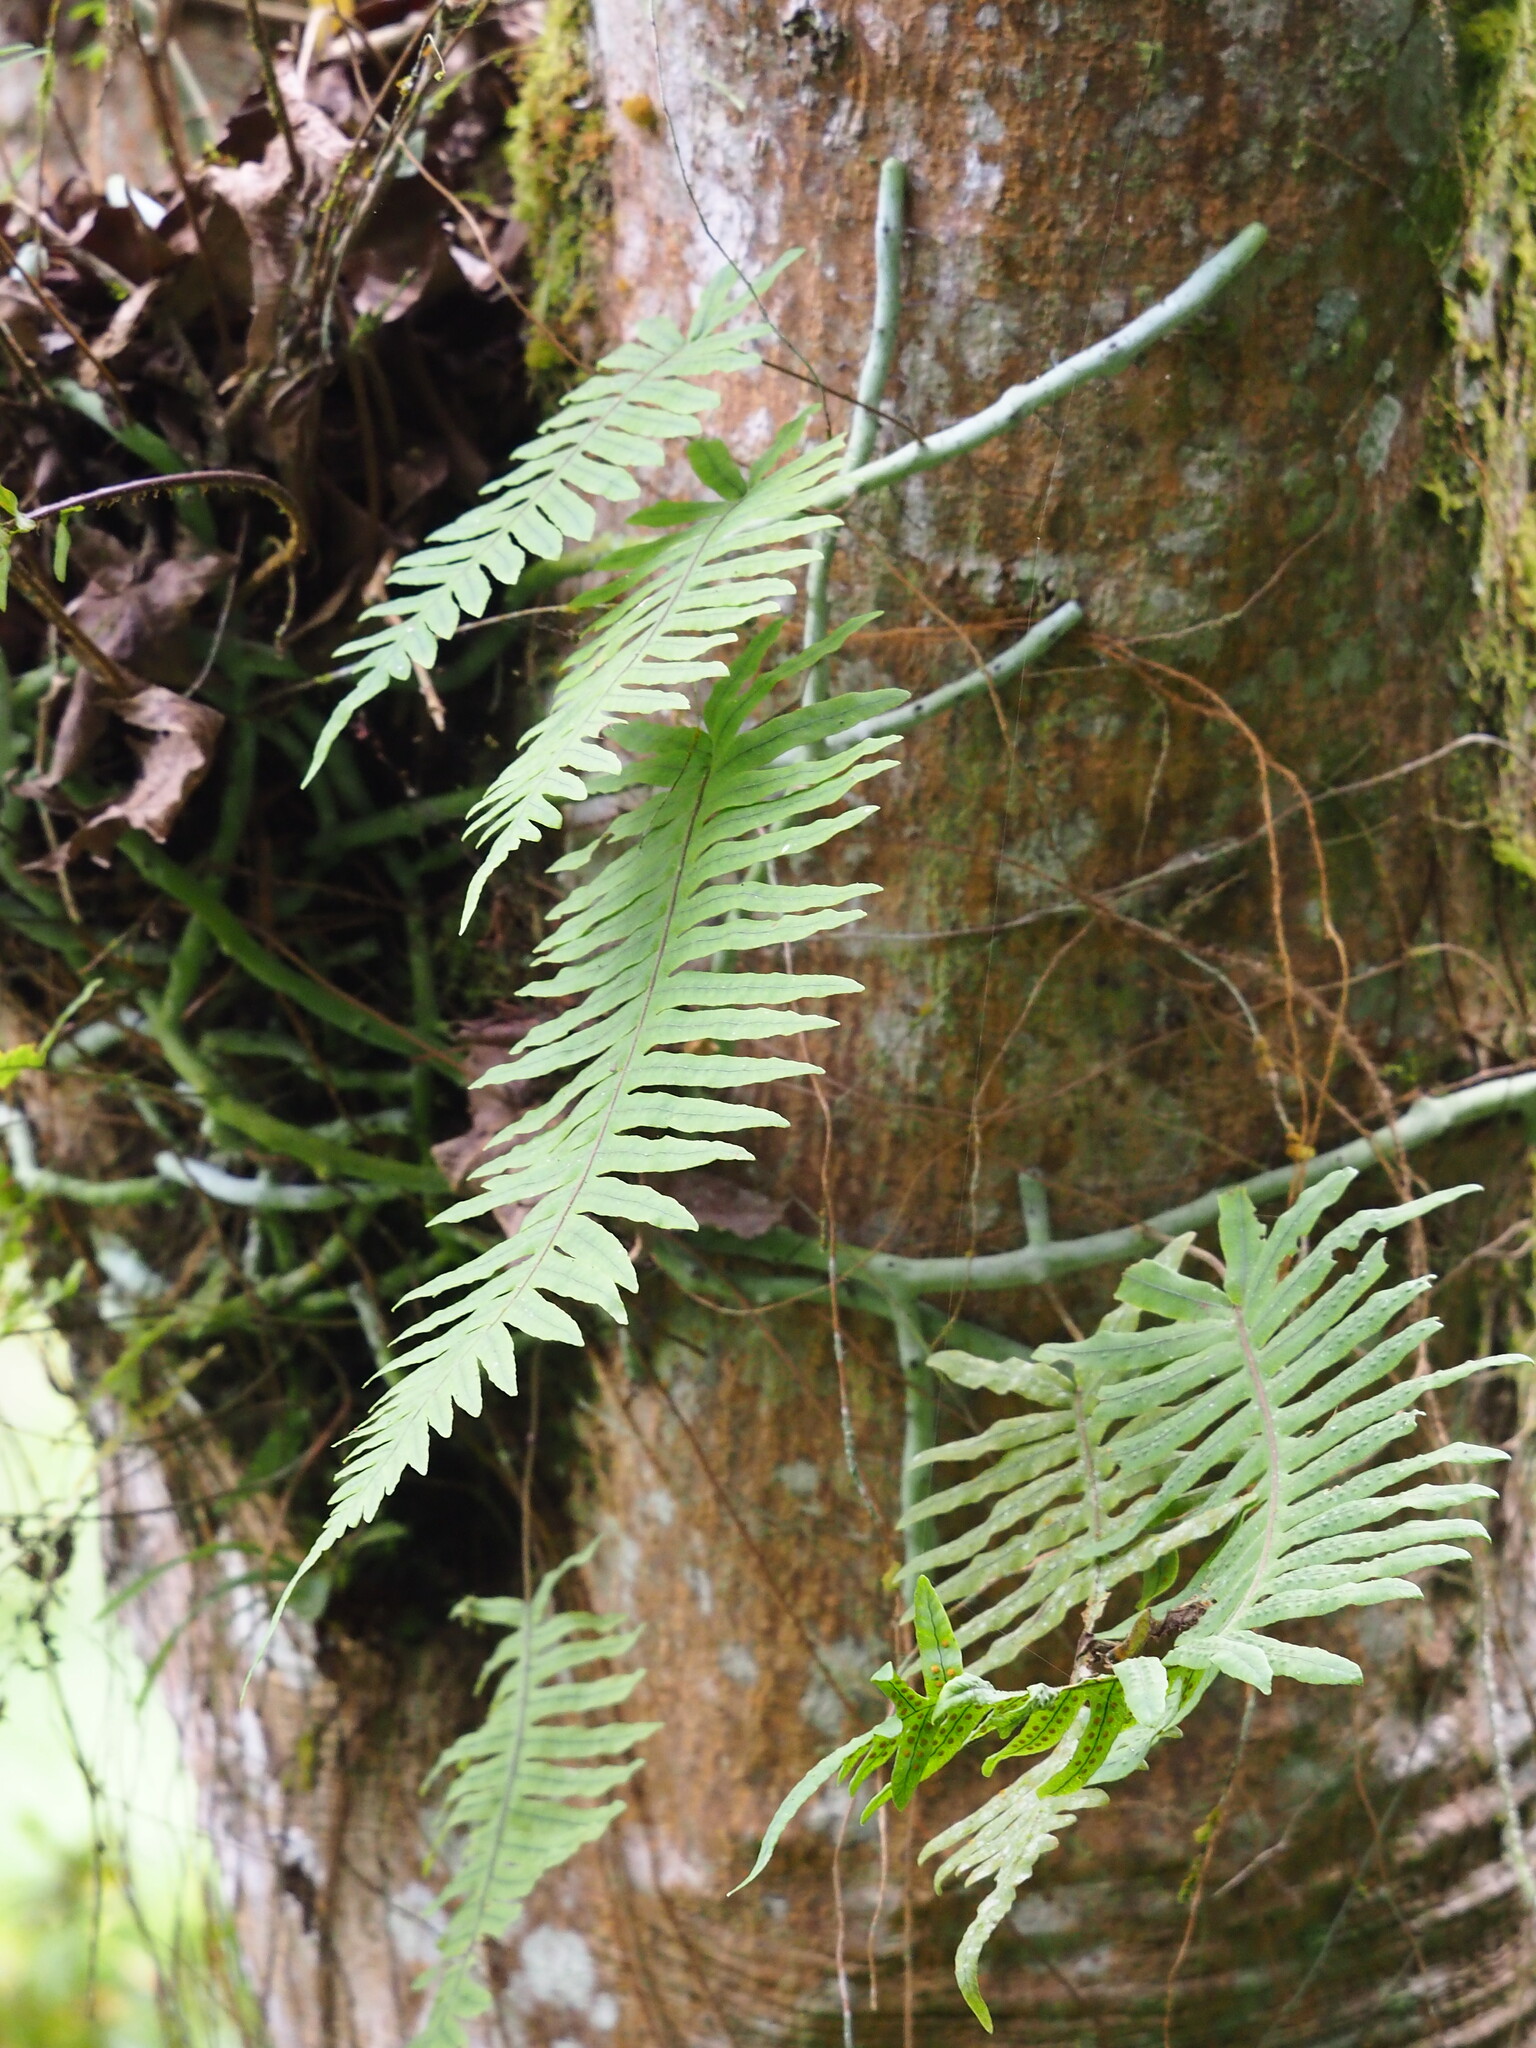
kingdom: Plantae
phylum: Tracheophyta
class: Polypodiopsida
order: Polypodiales
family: Polypodiaceae
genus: Goniophlebium
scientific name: Goniophlebium formosanum
